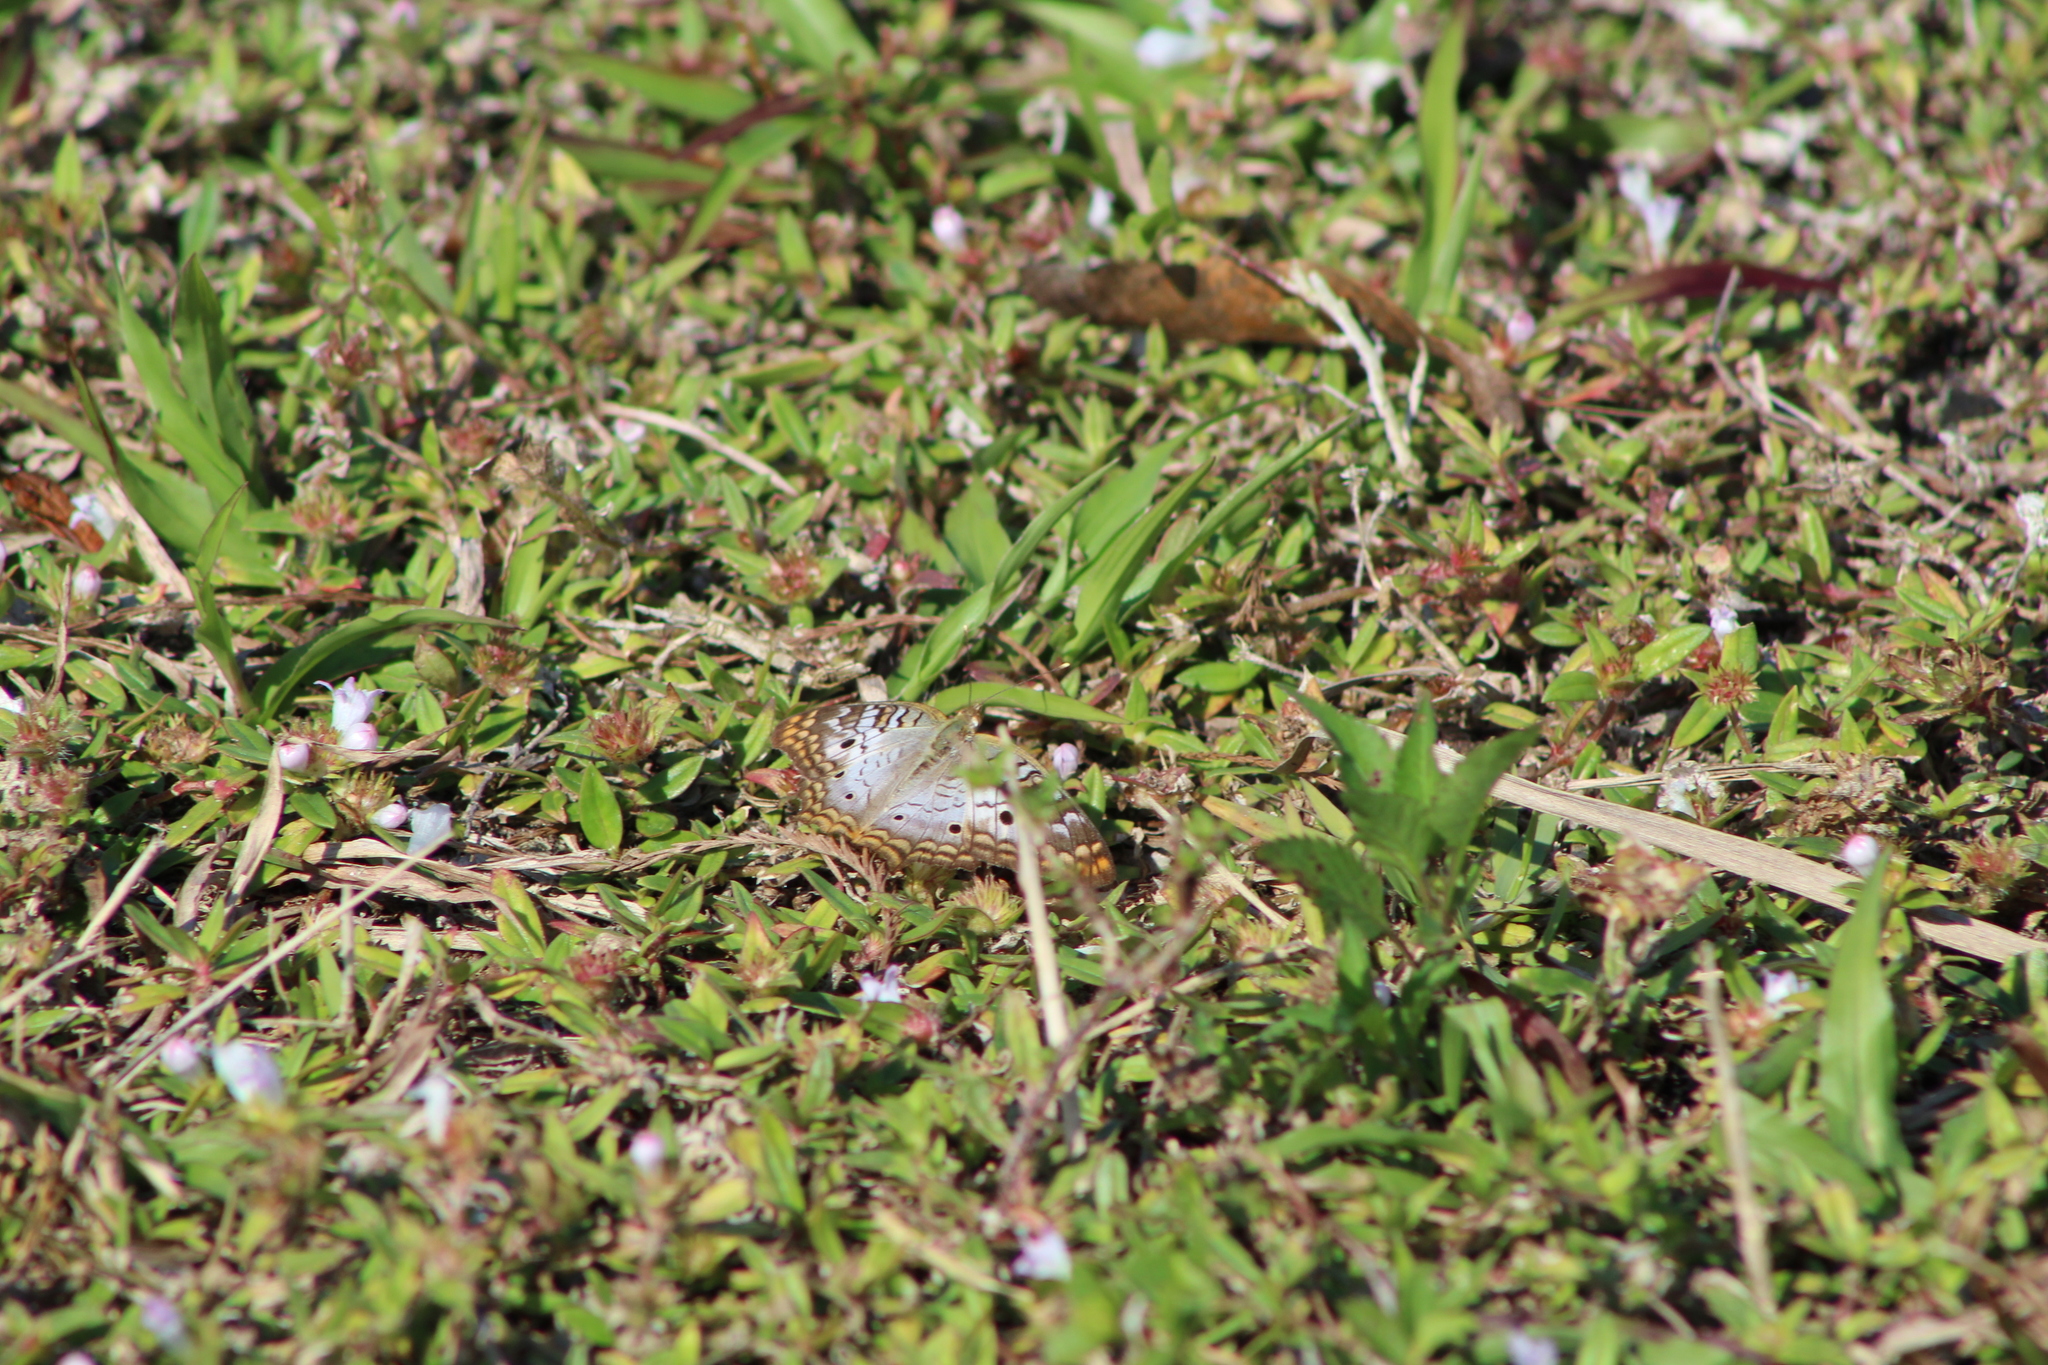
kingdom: Animalia
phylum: Arthropoda
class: Insecta
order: Lepidoptera
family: Nymphalidae
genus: Anartia
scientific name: Anartia jatrophae
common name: White peacock
